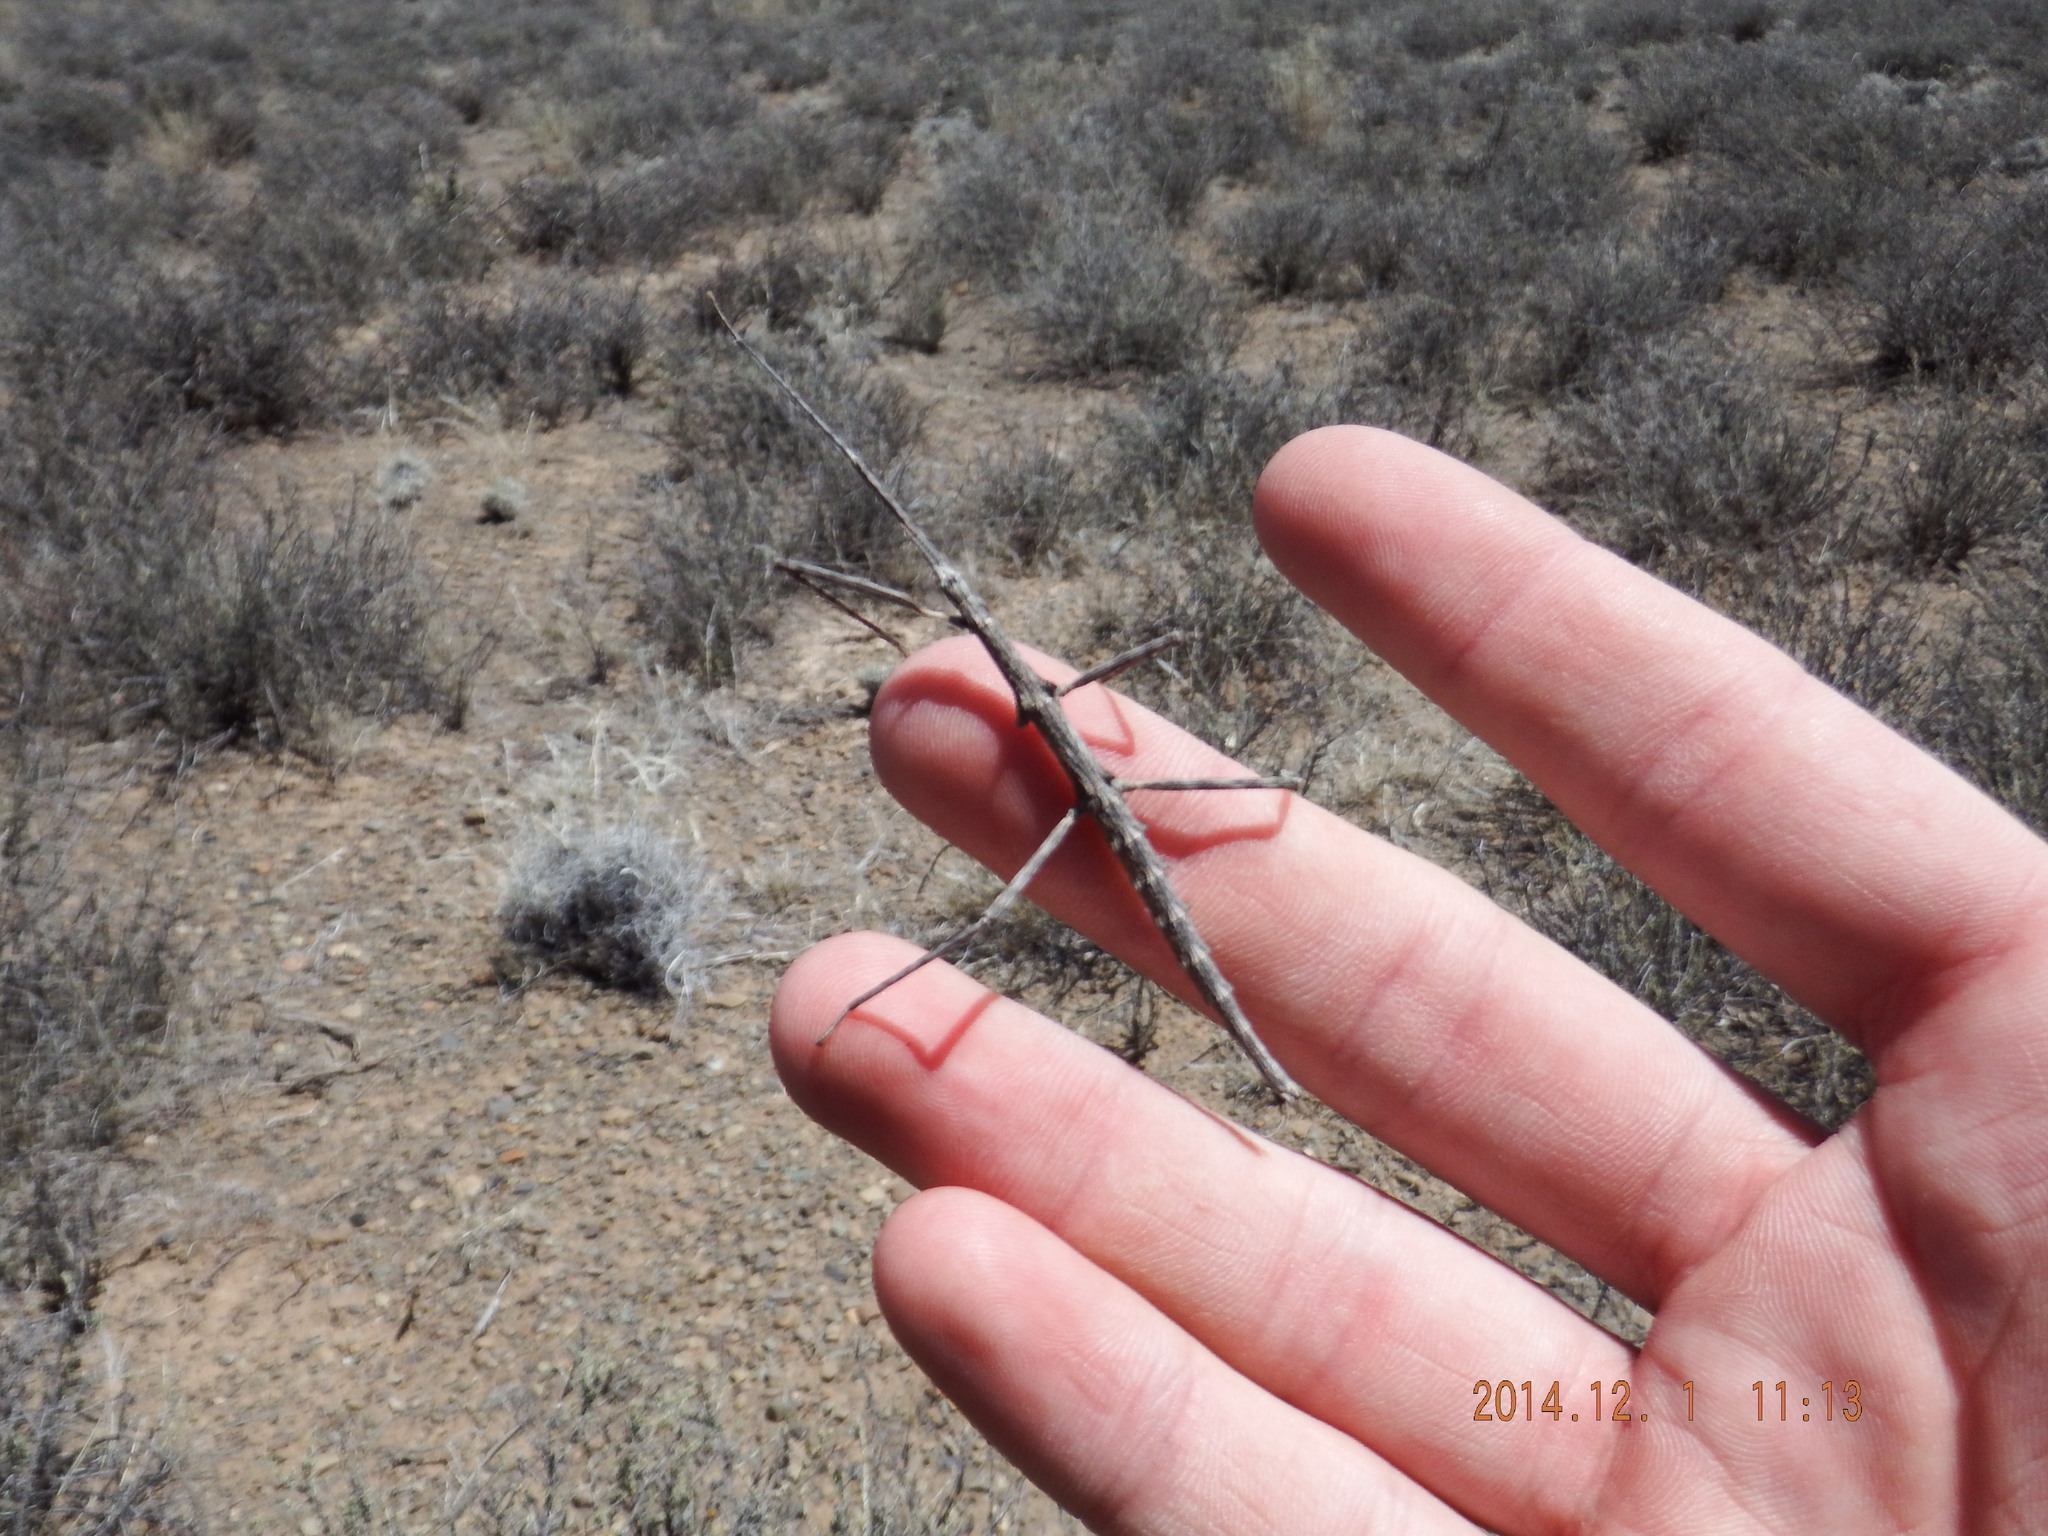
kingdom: Animalia
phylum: Arthropoda
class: Insecta
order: Phasmida
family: Bacillidae
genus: Gratidiinilobus
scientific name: Gratidiinilobus capensis
